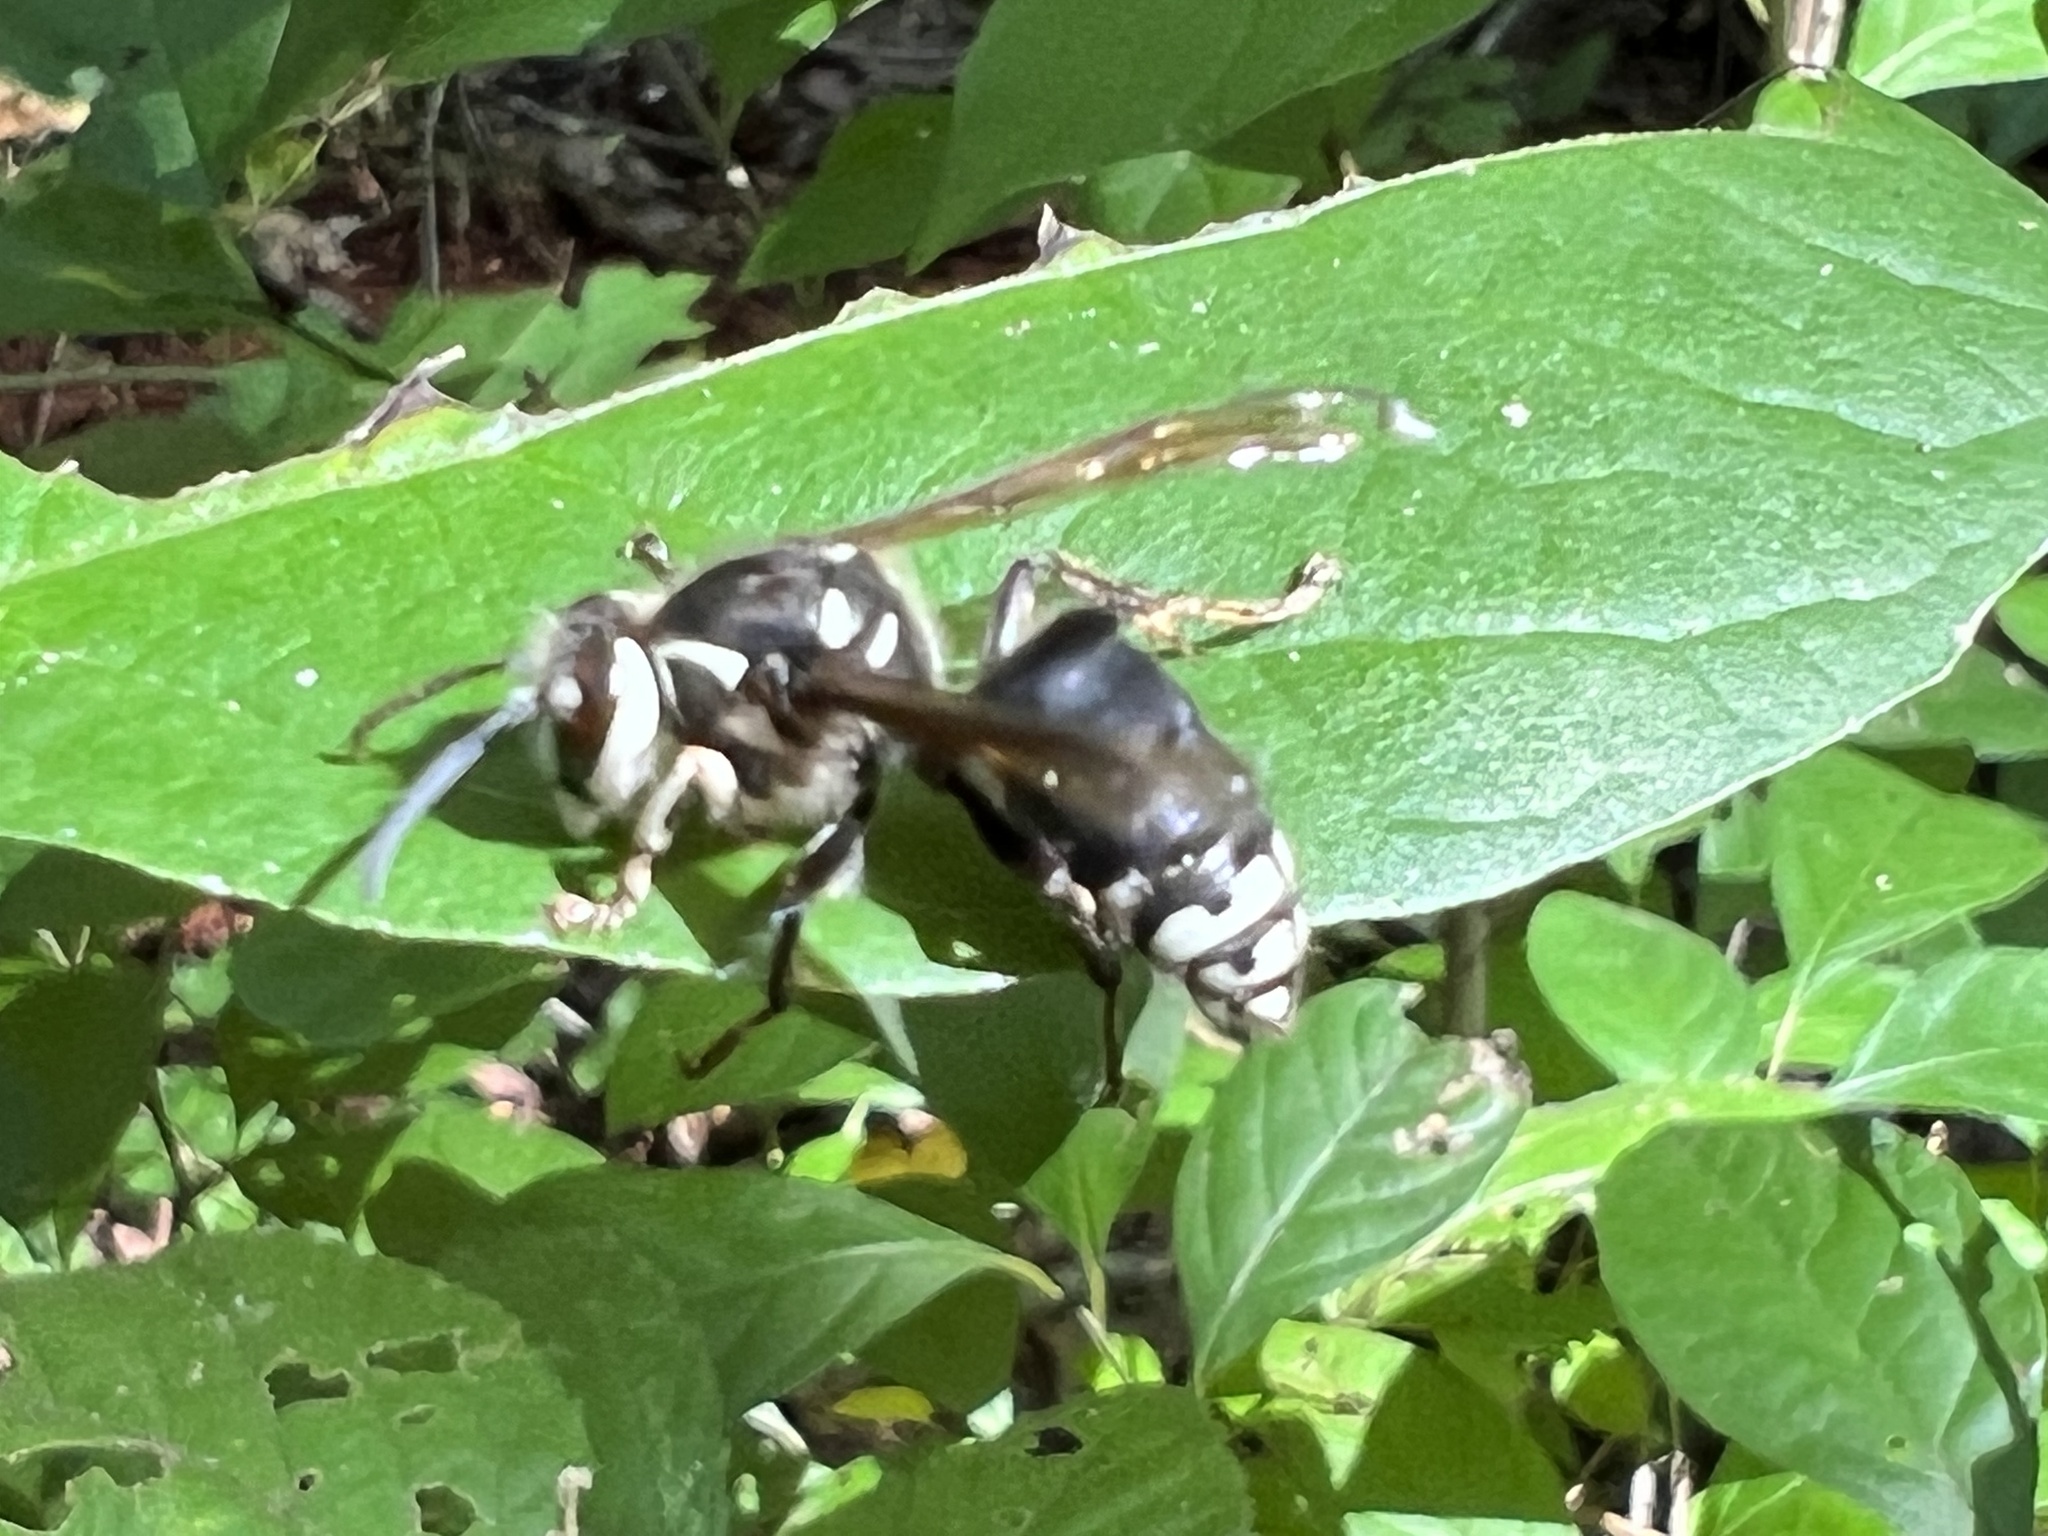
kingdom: Animalia
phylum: Arthropoda
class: Insecta
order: Hymenoptera
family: Vespidae
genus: Dolichovespula
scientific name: Dolichovespula maculata
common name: Bald-faced hornet
